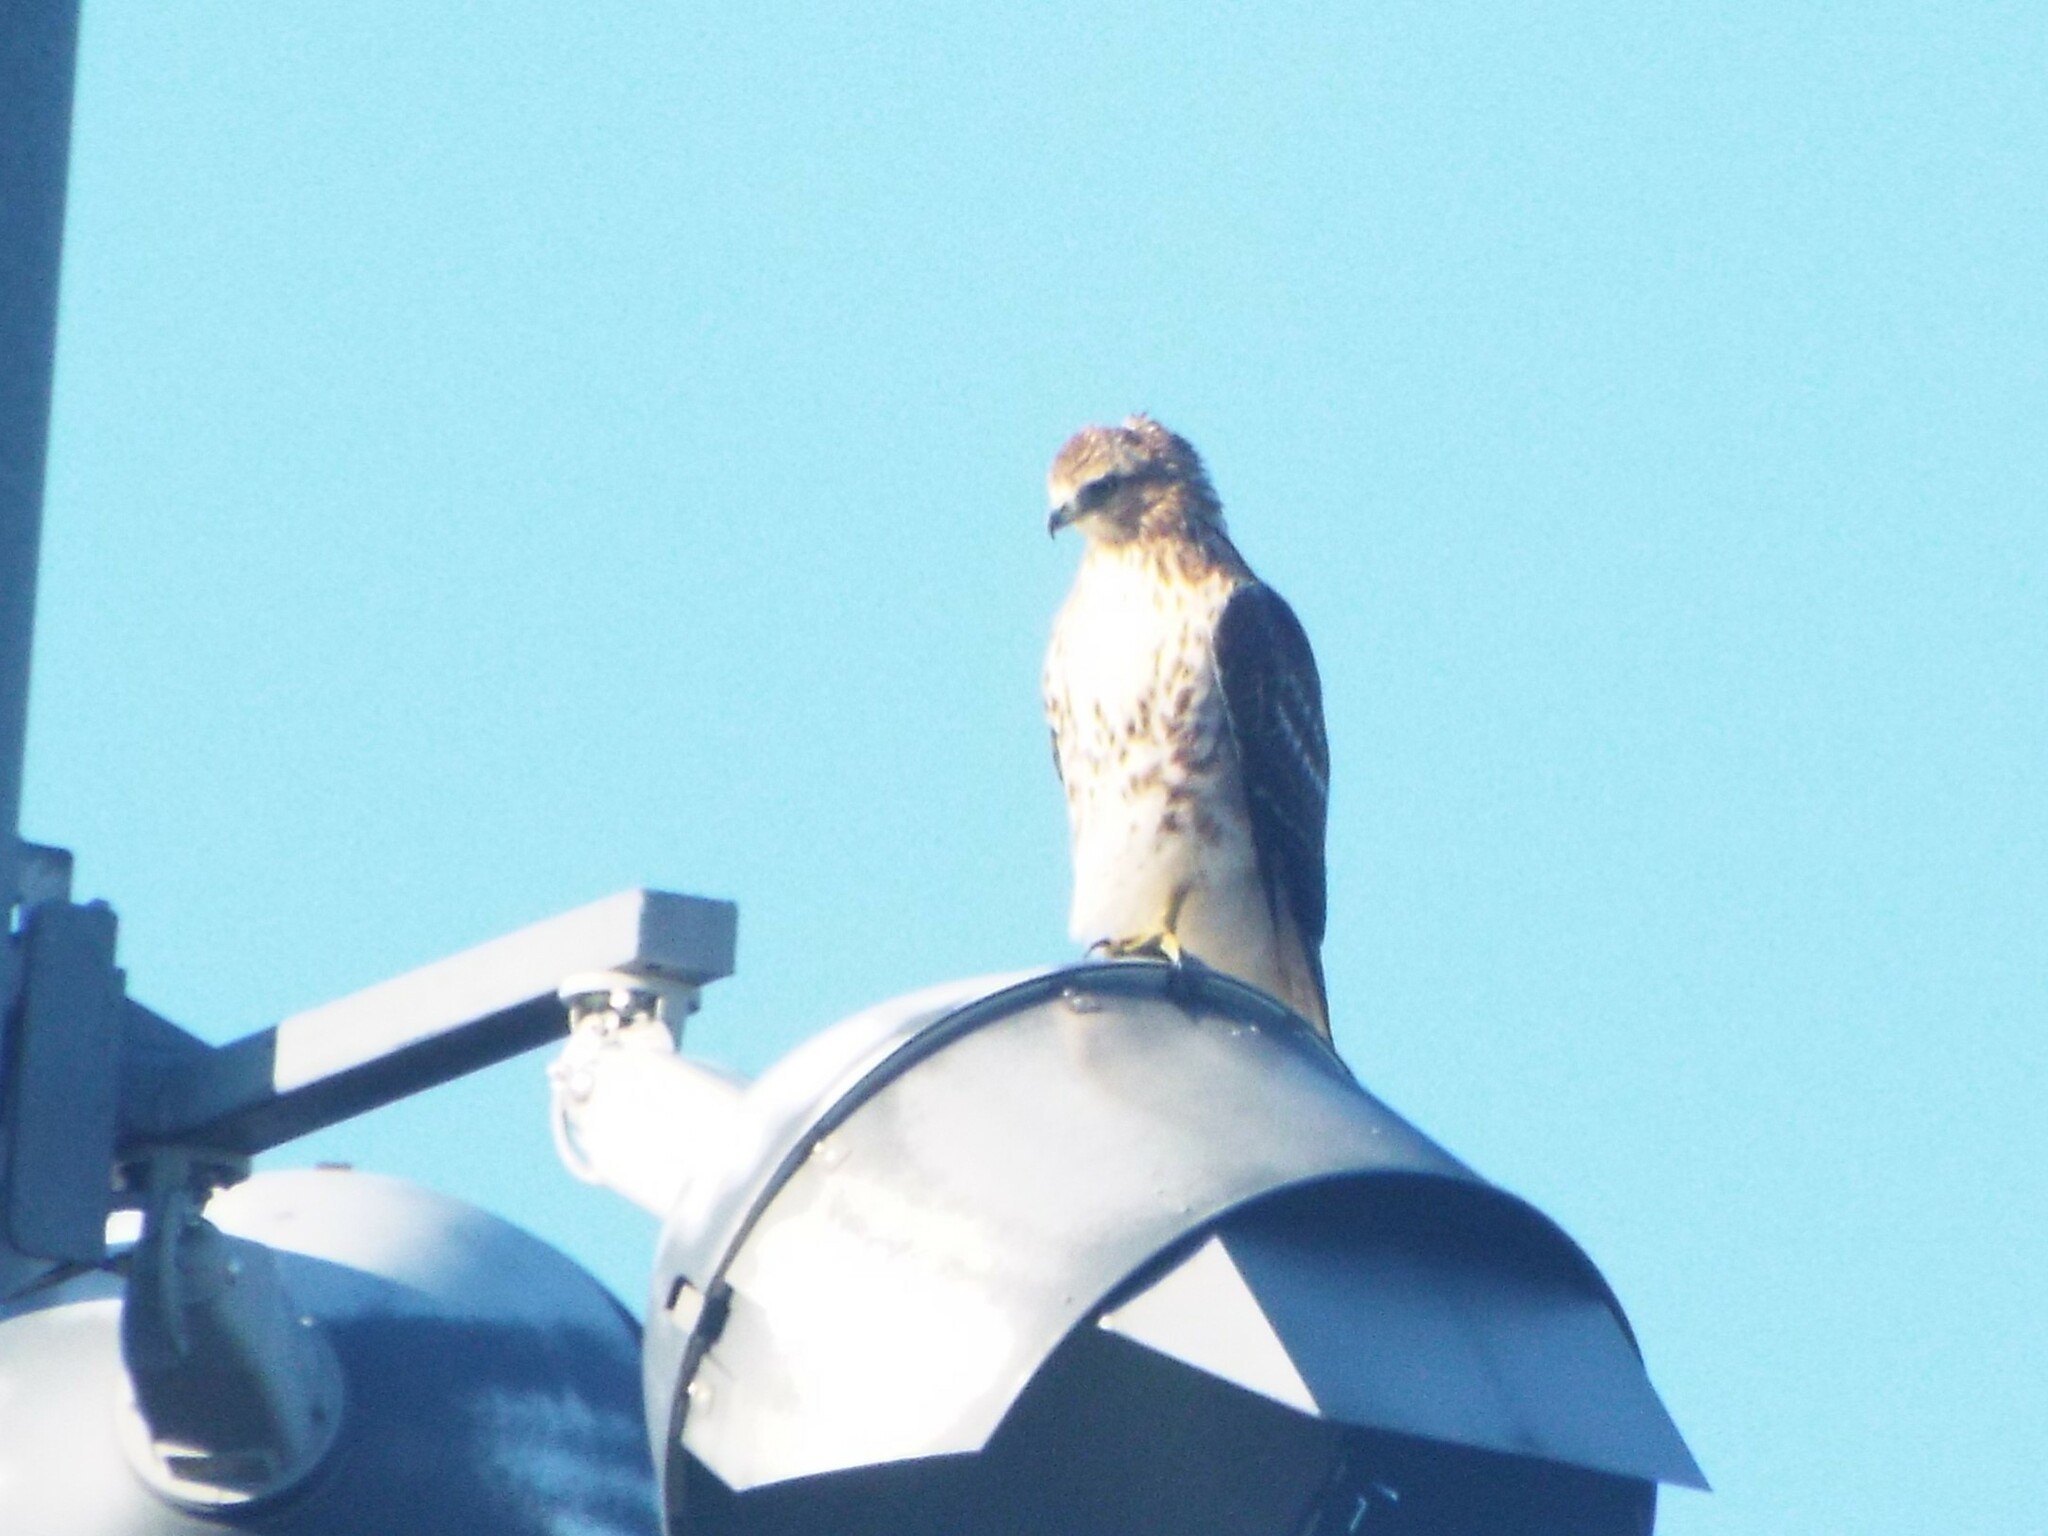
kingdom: Animalia
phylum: Chordata
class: Aves
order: Accipitriformes
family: Accipitridae
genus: Buteo
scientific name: Buteo jamaicensis
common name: Red-tailed hawk
